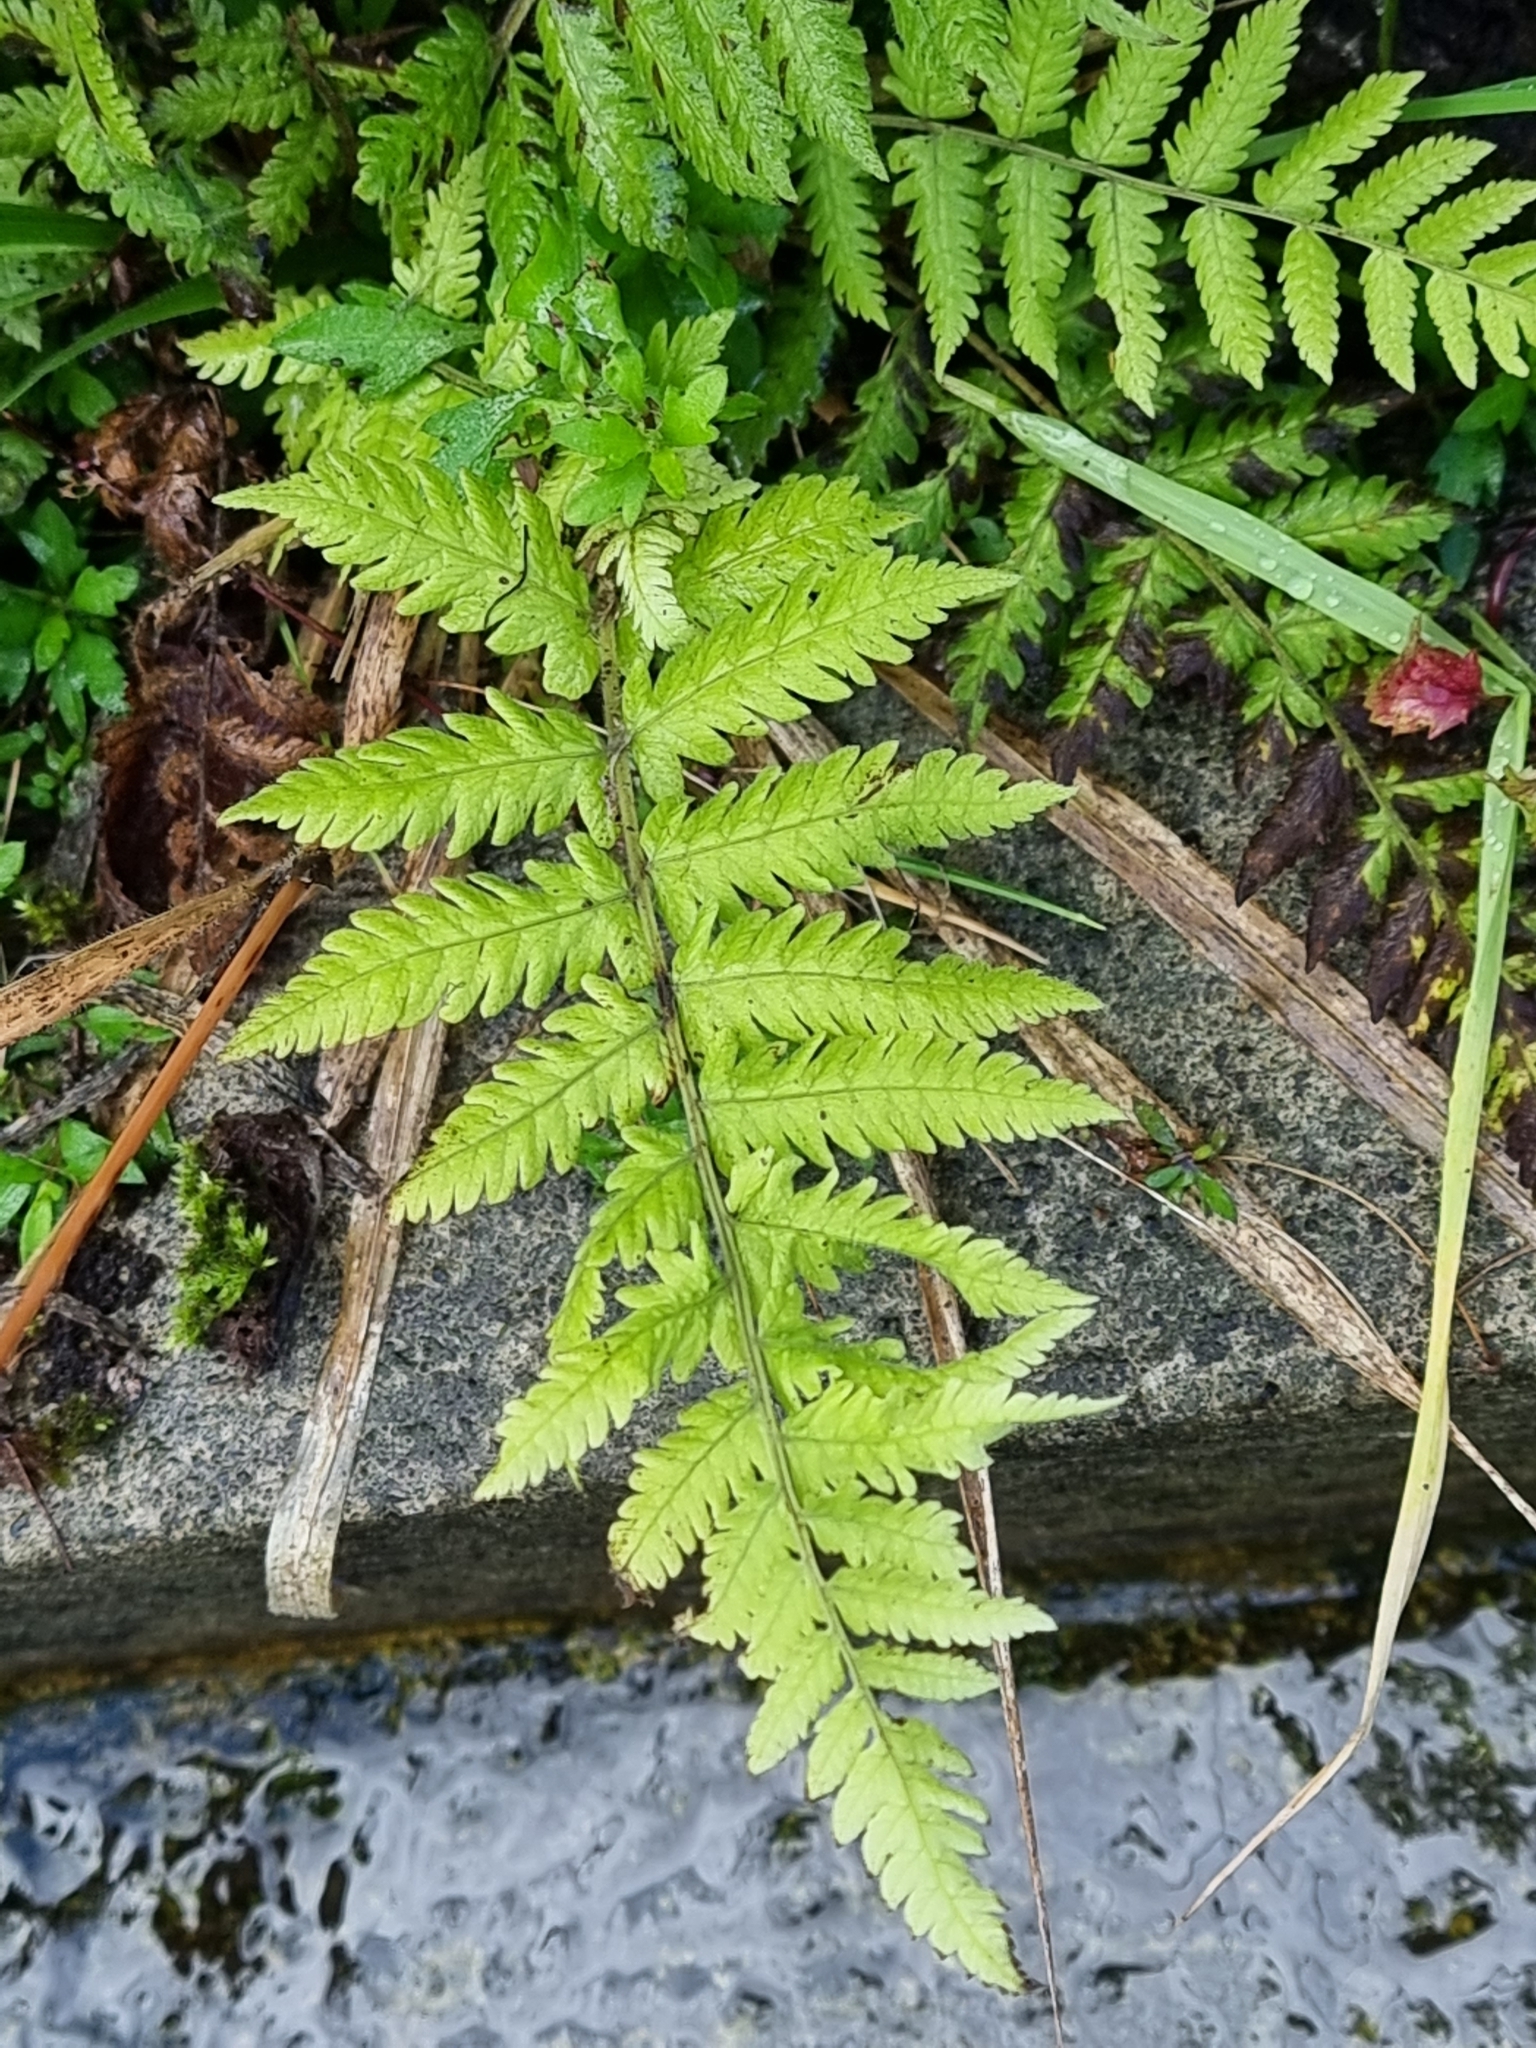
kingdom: Plantae
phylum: Tracheophyta
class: Polypodiopsida
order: Polypodiales
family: Thelypteridaceae
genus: Christella
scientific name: Christella dentata
